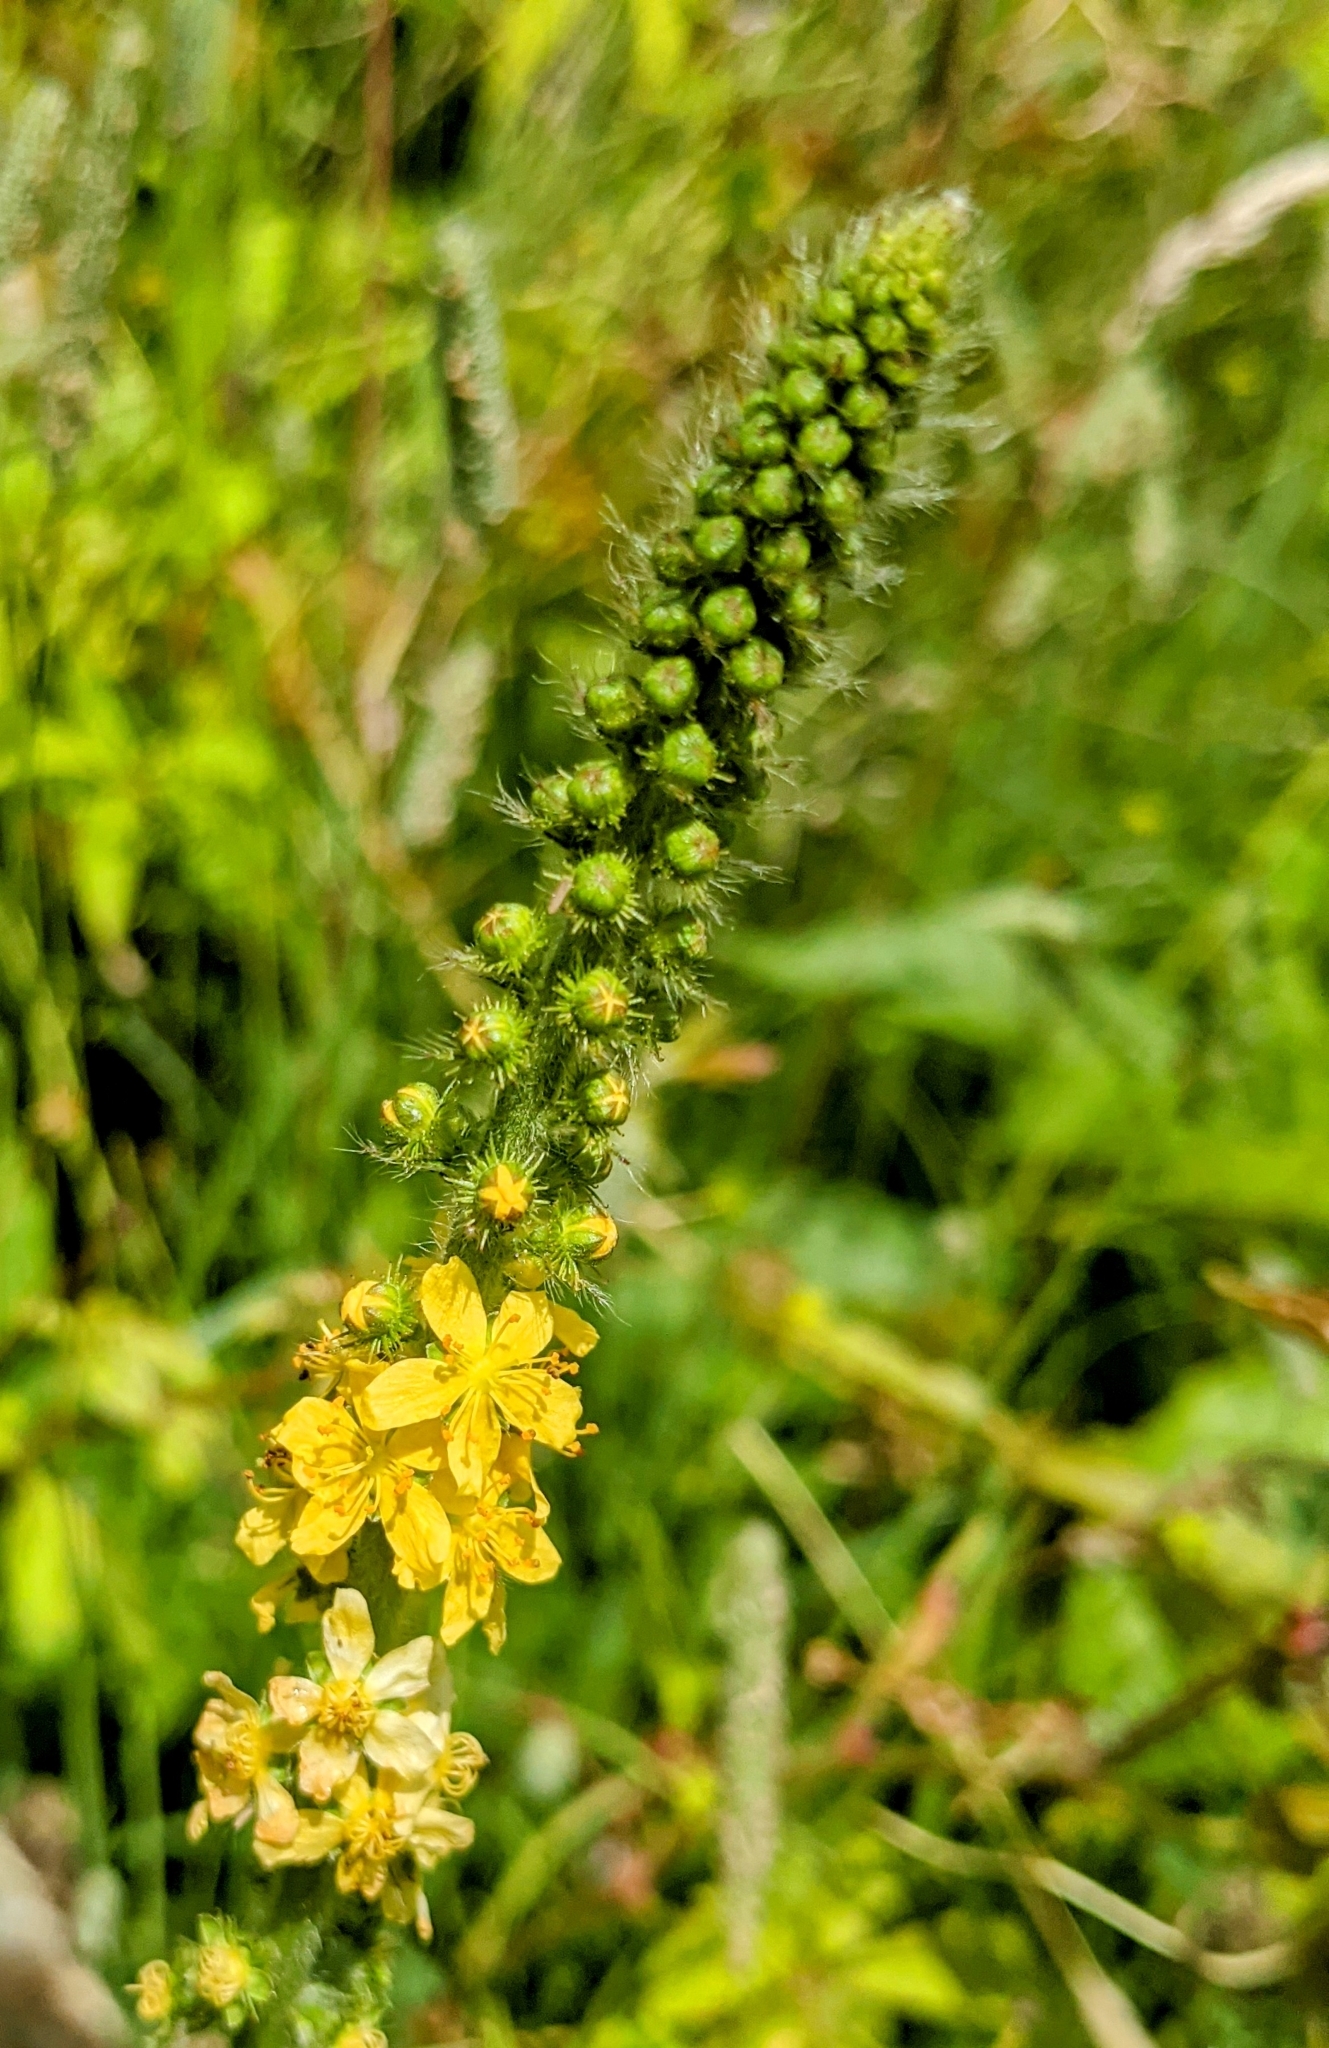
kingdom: Plantae
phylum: Tracheophyta
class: Magnoliopsida
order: Rosales
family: Rosaceae
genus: Agrimonia
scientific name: Agrimonia eupatoria
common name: Agrimony
